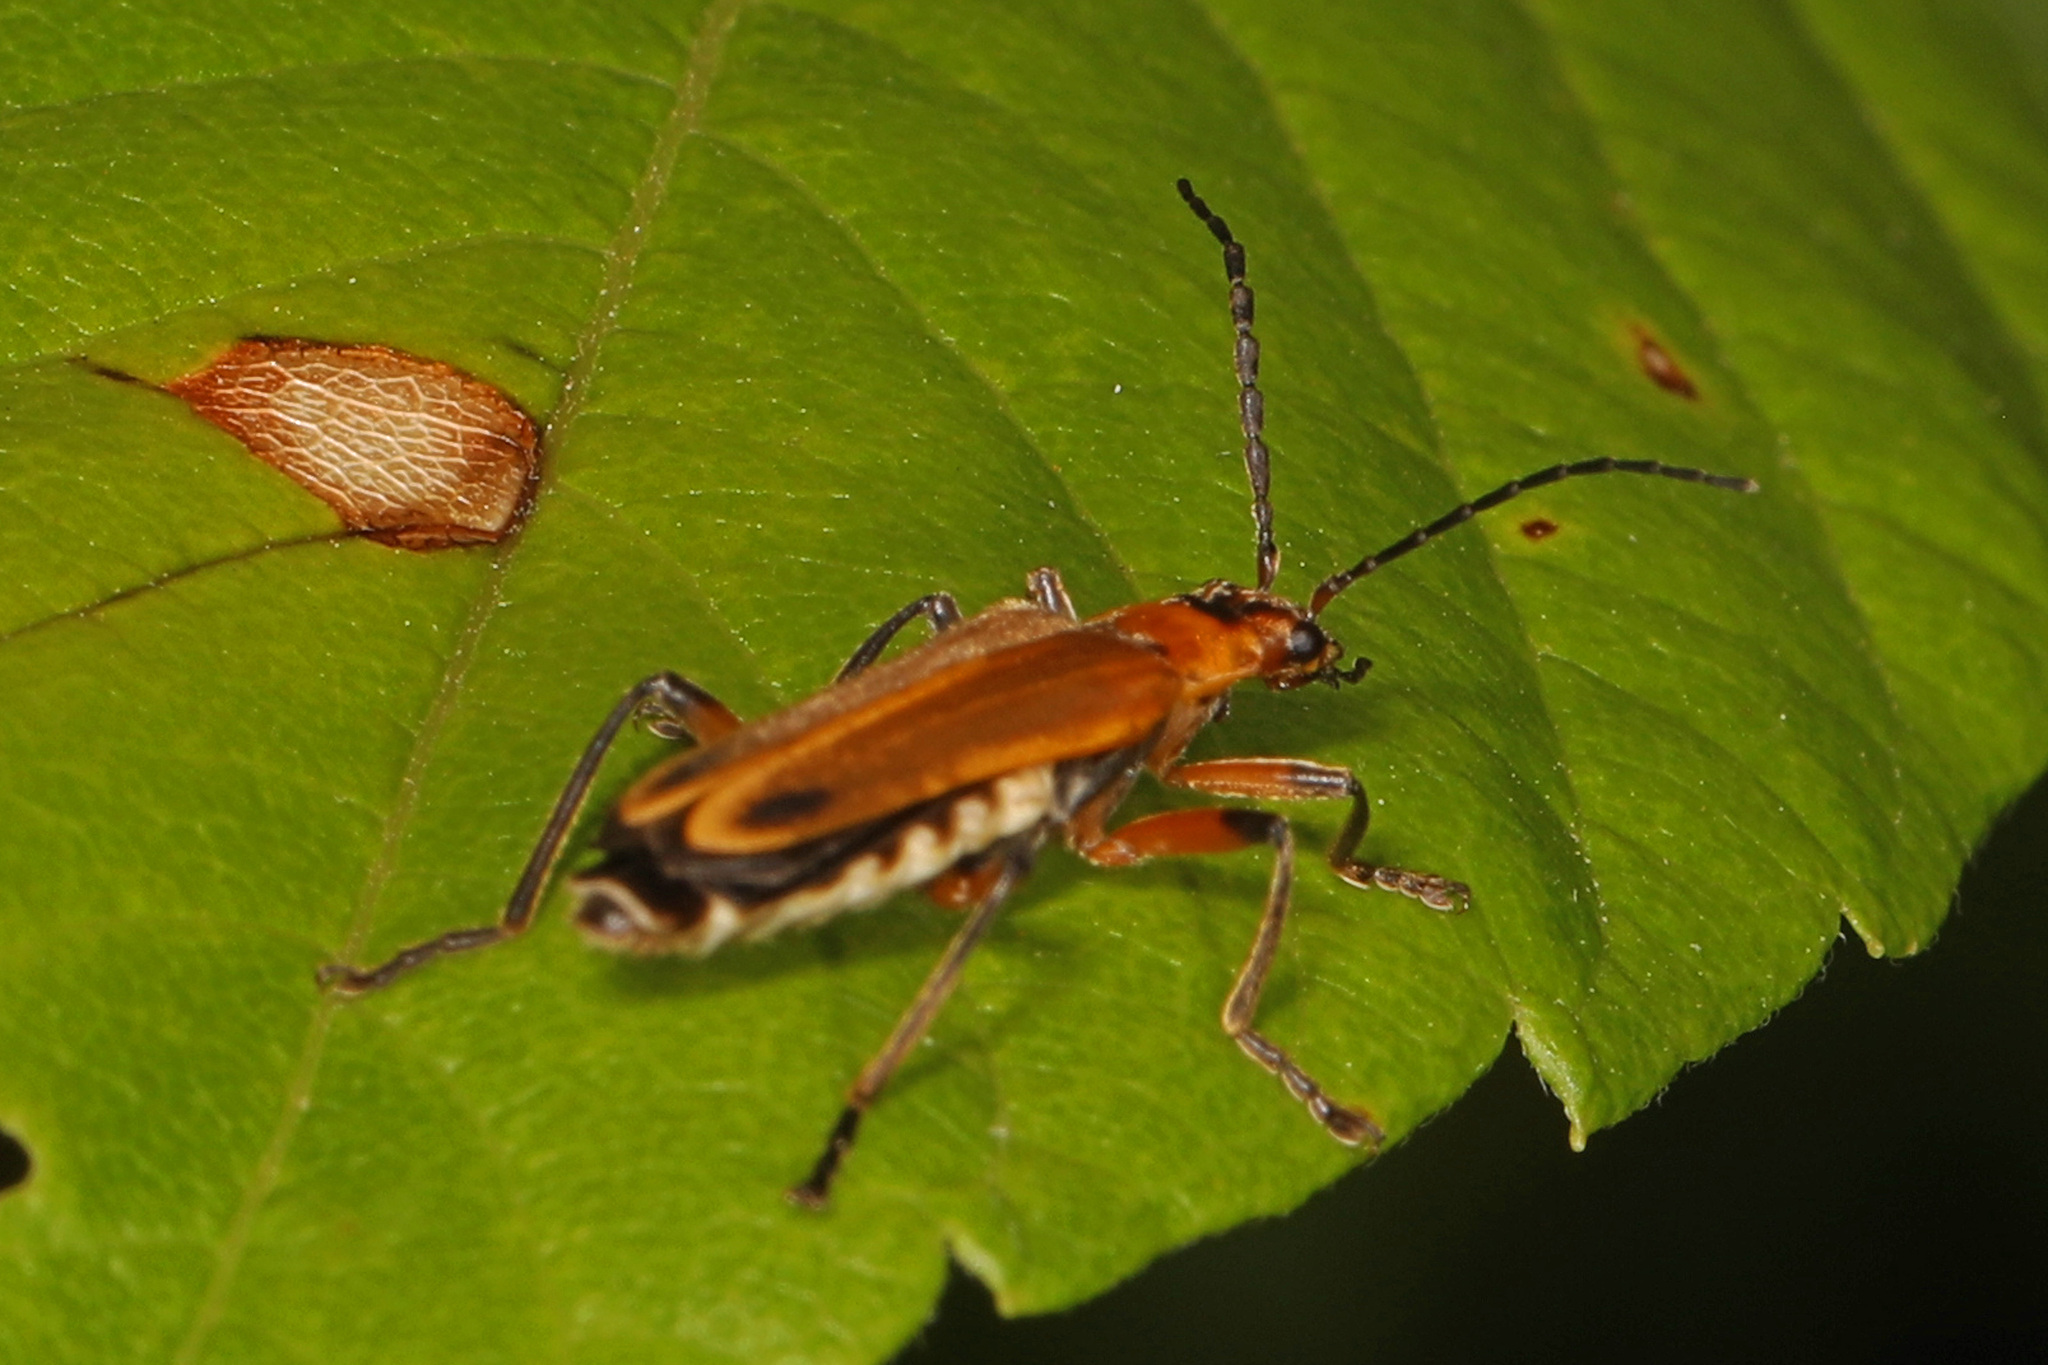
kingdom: Animalia
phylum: Arthropoda
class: Insecta
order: Coleoptera
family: Cantharidae
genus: Chauliognathus
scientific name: Chauliognathus marginatus
